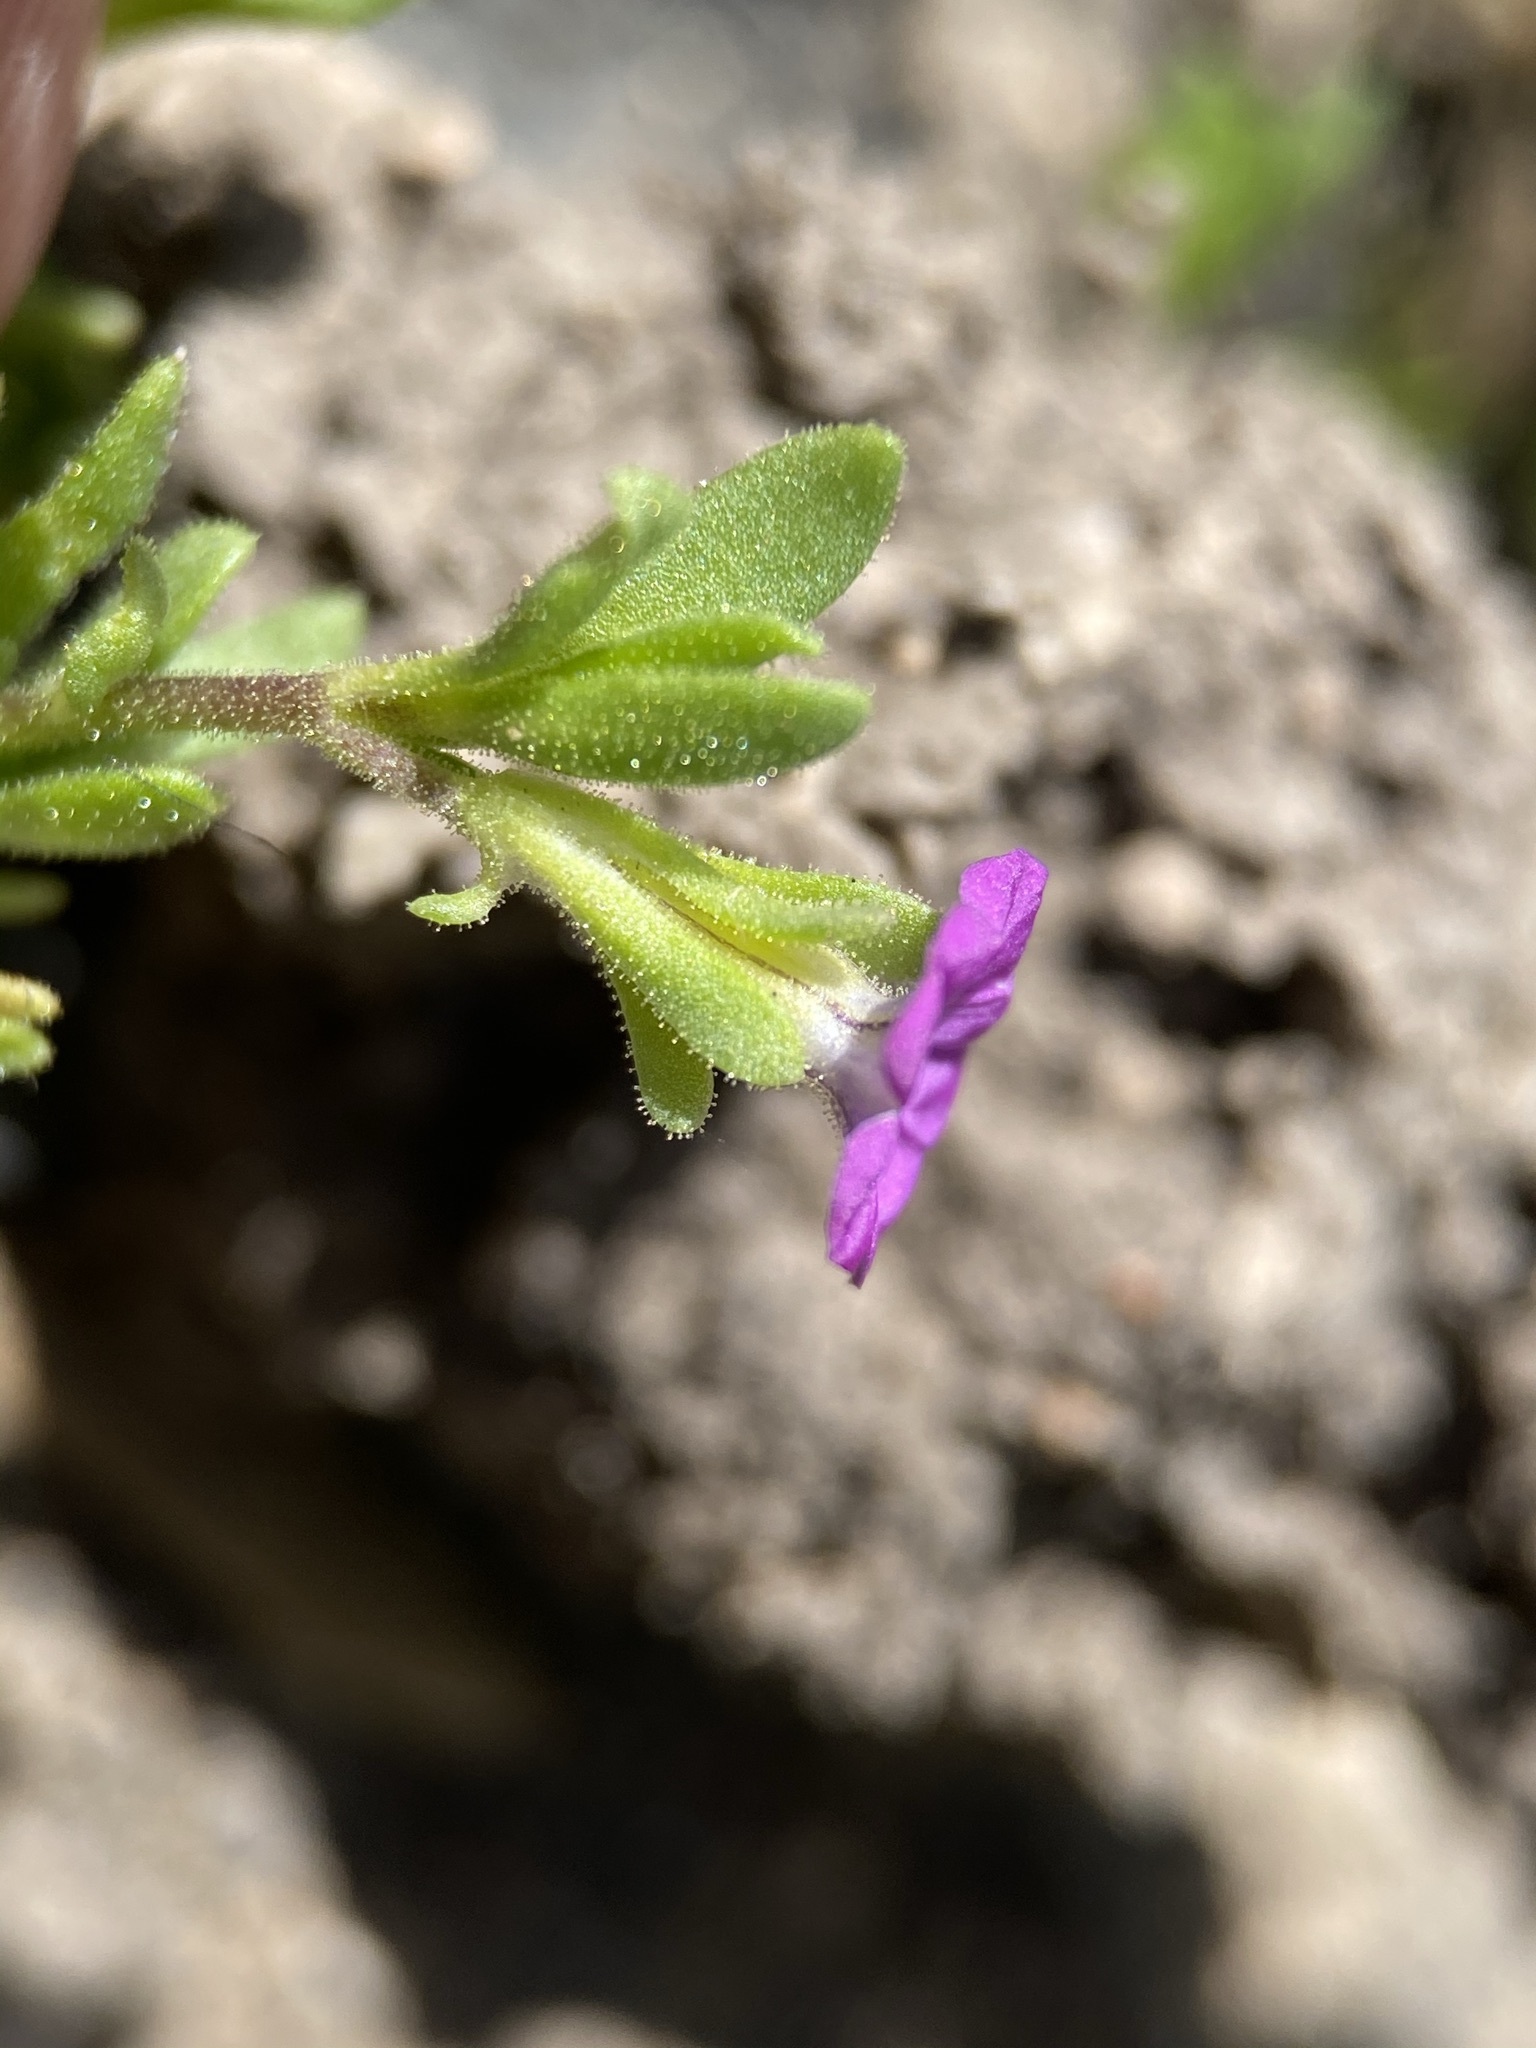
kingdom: Plantae
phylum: Tracheophyta
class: Magnoliopsida
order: Solanales
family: Solanaceae
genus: Calibrachoa
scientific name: Calibrachoa parviflora
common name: Seaside petunia
